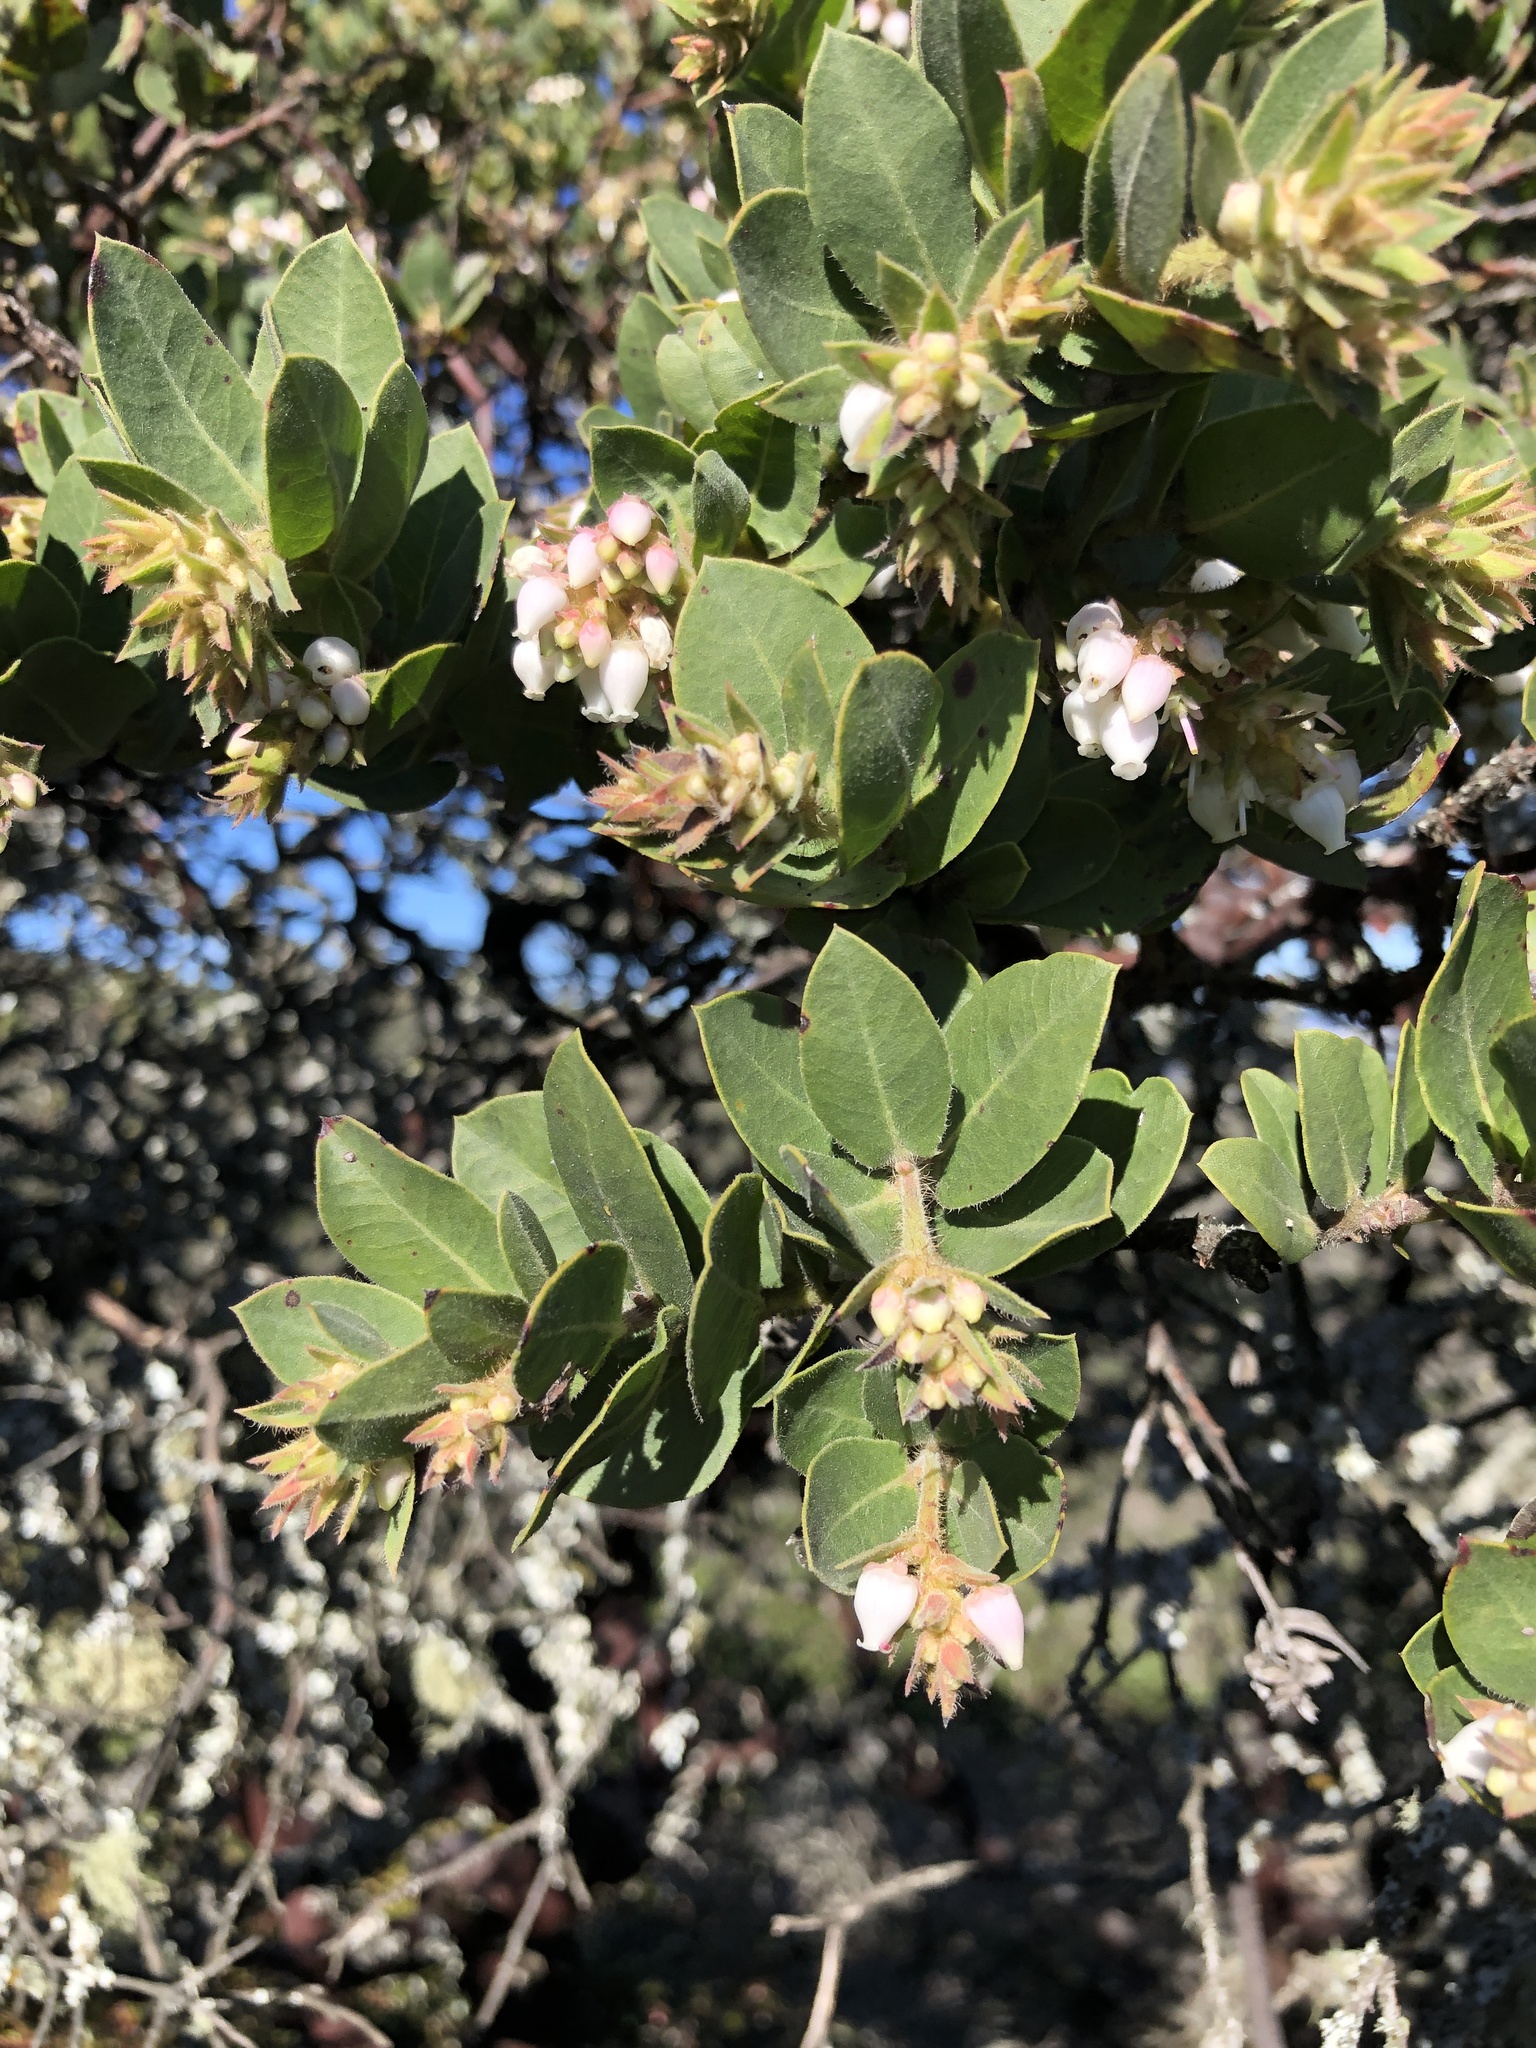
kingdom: Plantae
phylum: Tracheophyta
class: Magnoliopsida
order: Ericales
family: Ericaceae
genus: Arctostaphylos
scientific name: Arctostaphylos montaraensis
